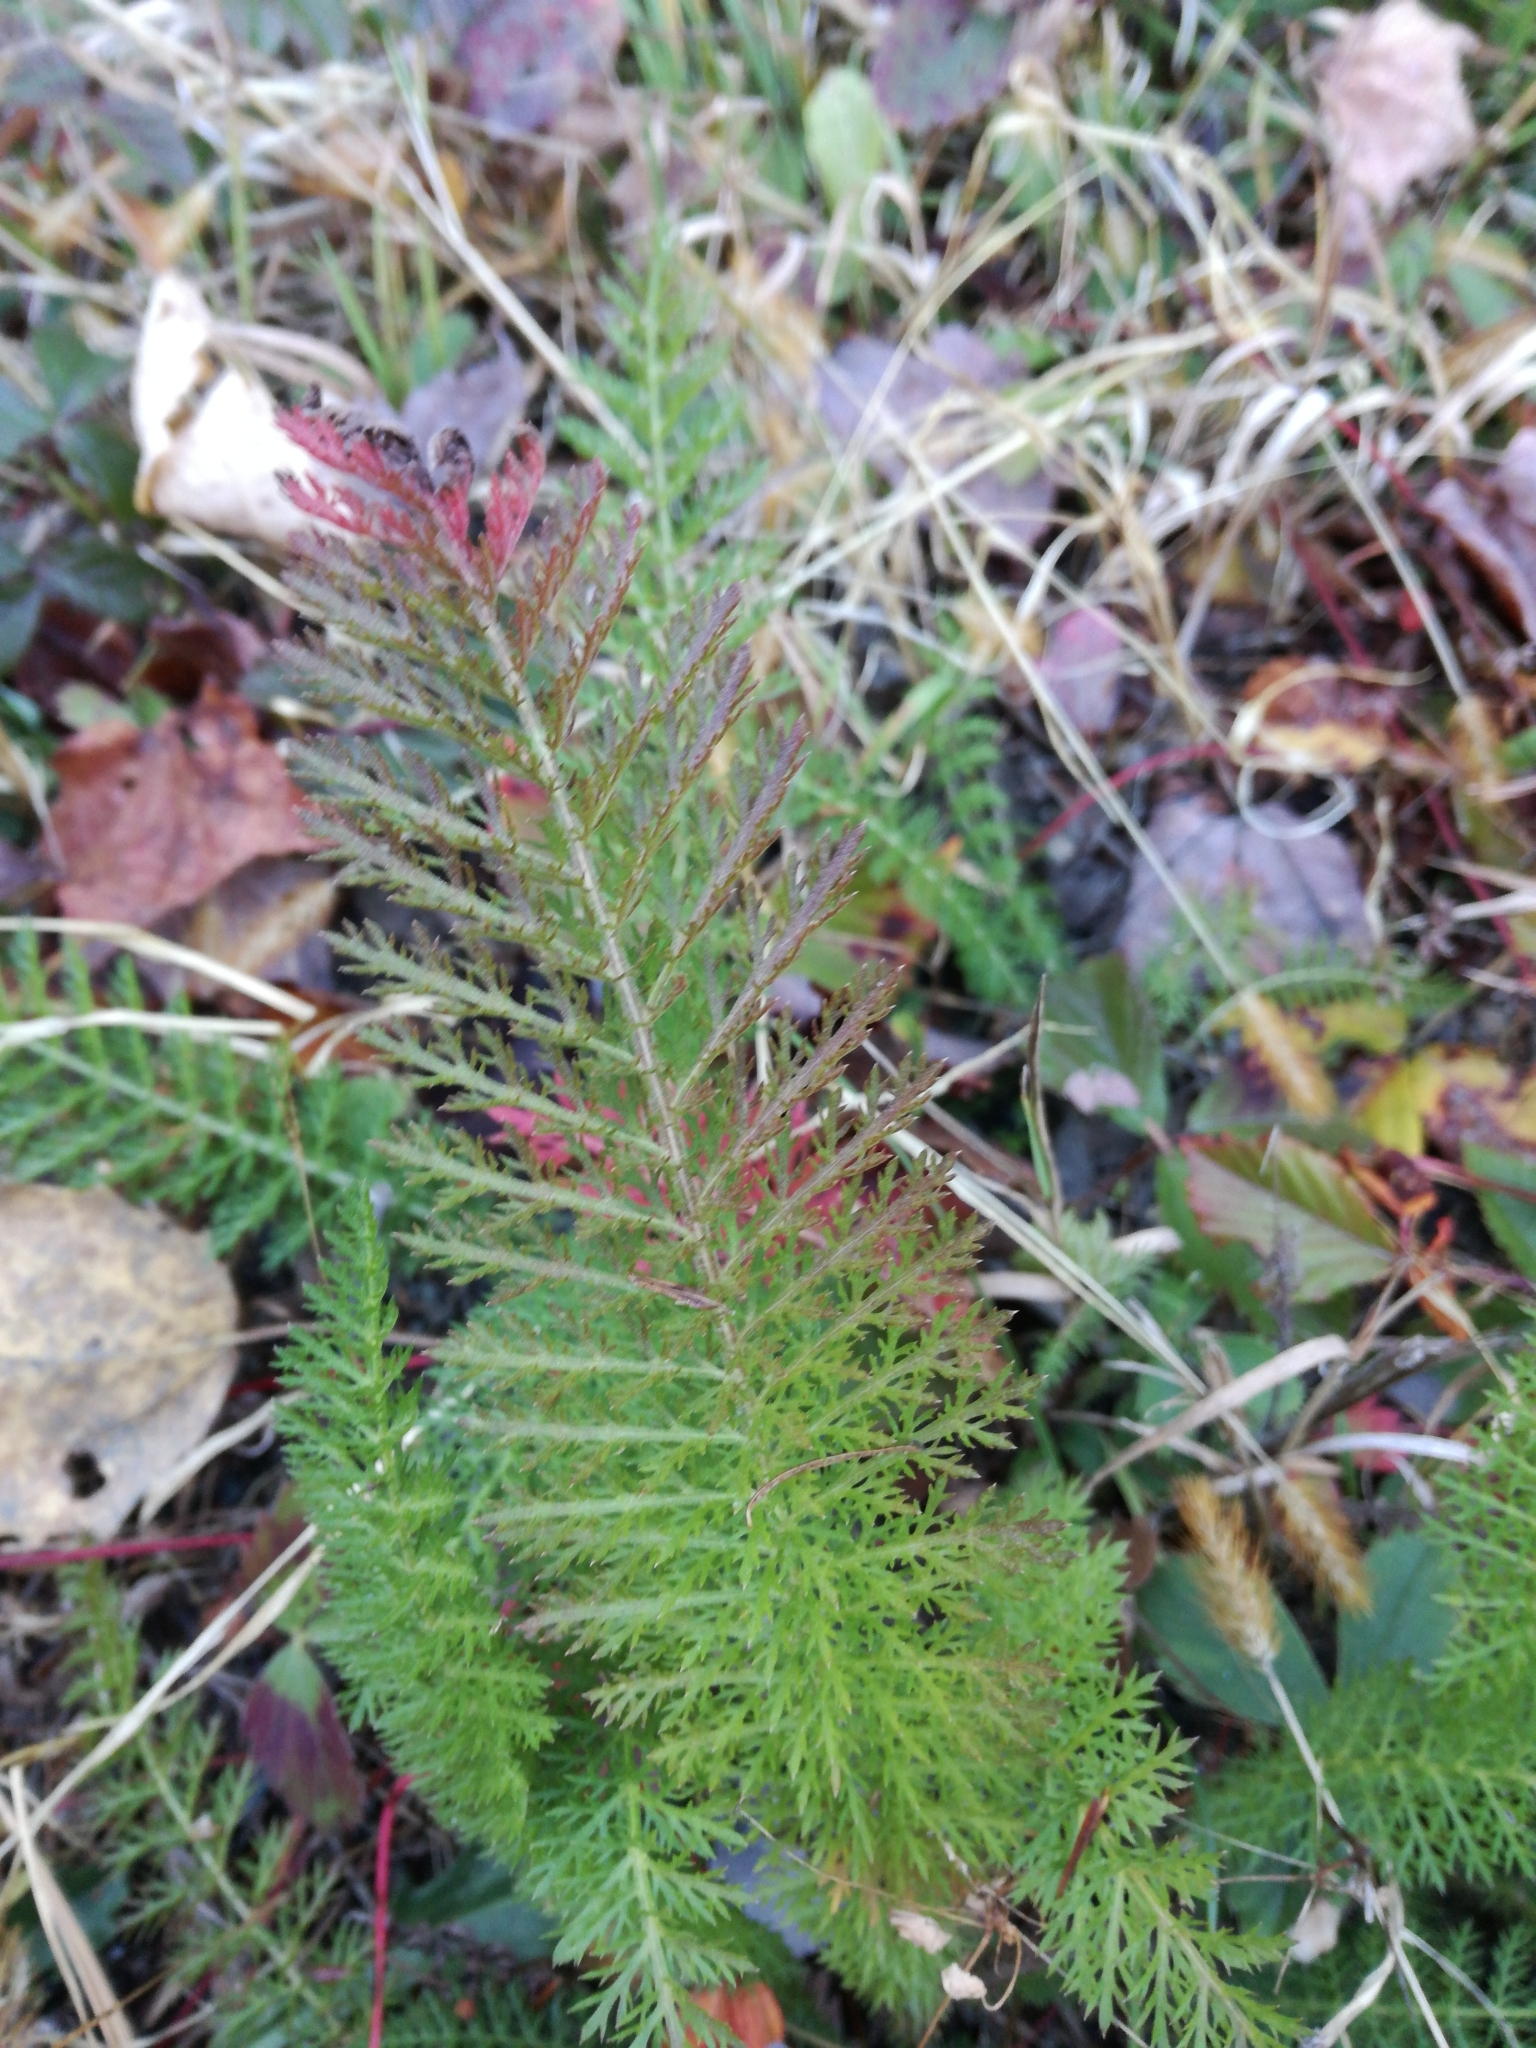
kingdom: Plantae
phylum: Tracheophyta
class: Magnoliopsida
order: Asterales
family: Asteraceae
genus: Achillea
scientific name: Achillea millefolium
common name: Yarrow
